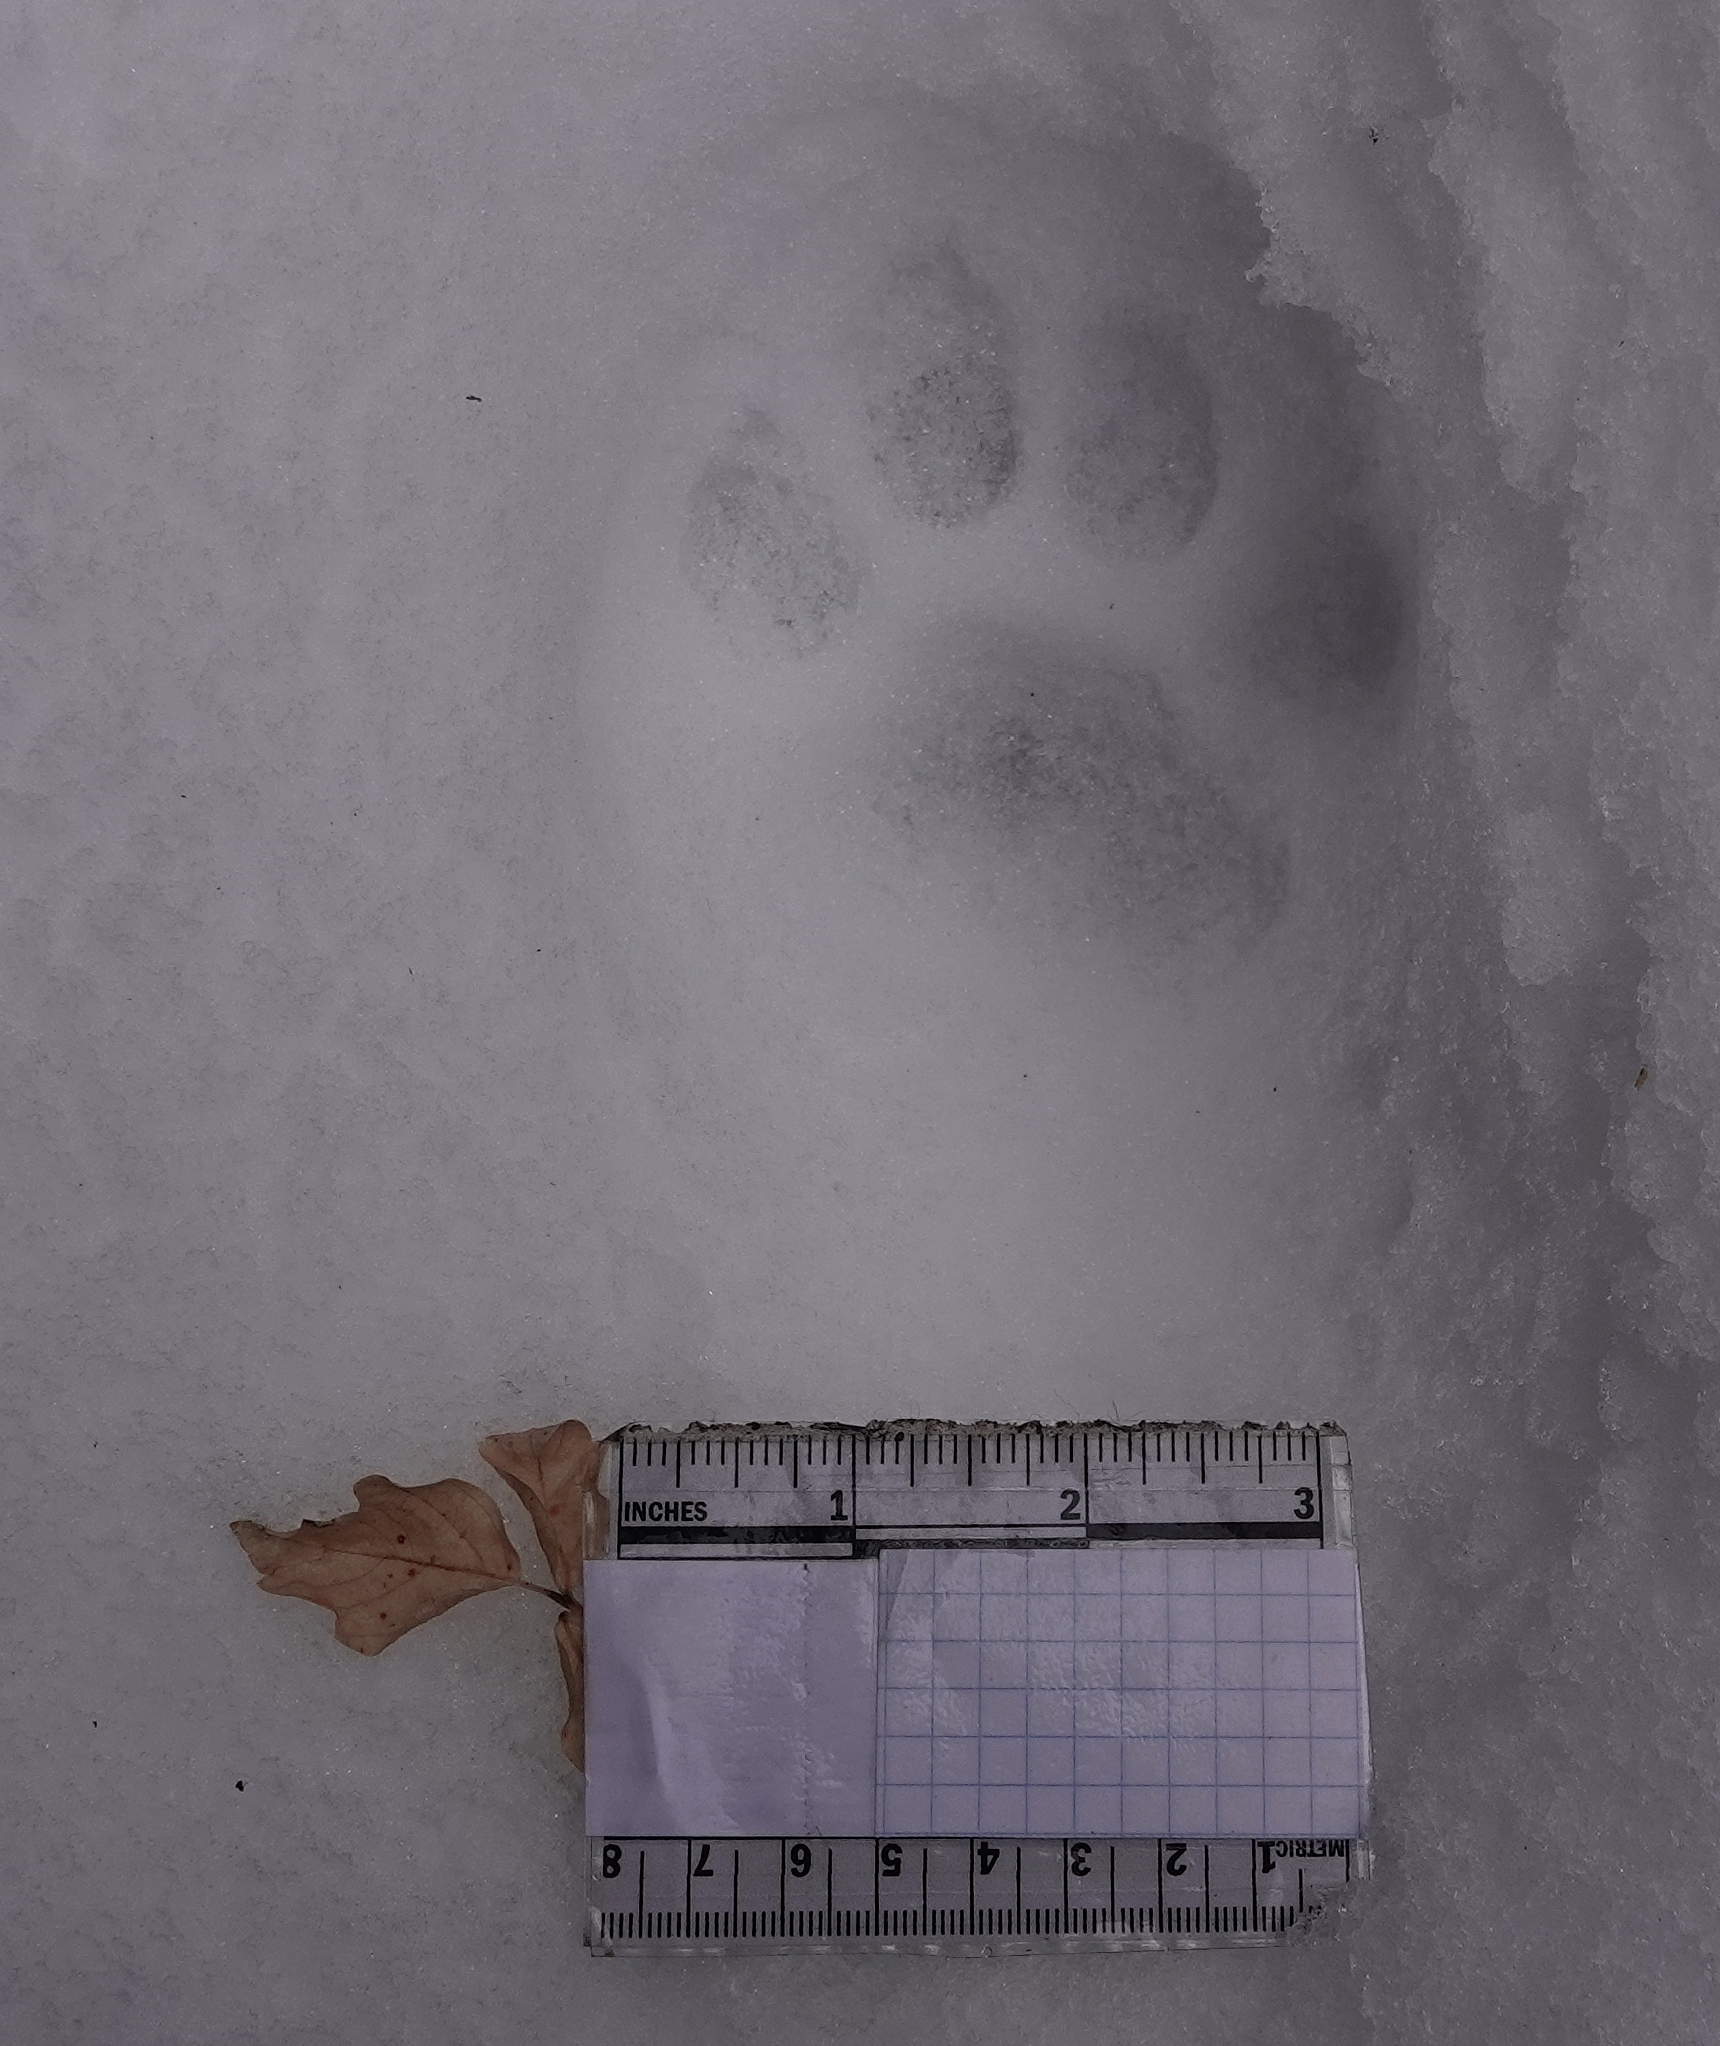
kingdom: Animalia
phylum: Chordata
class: Mammalia
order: Carnivora
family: Felidae
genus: Puma
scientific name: Puma concolor
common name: Puma
